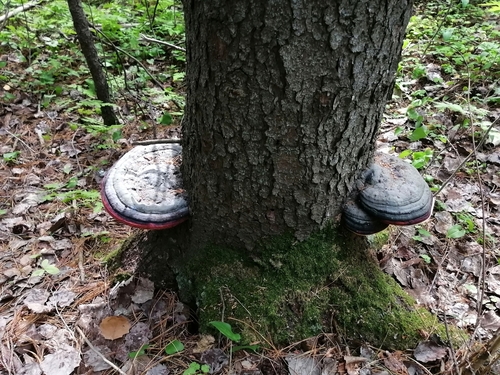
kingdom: Fungi
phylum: Basidiomycota
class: Agaricomycetes
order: Polyporales
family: Fomitopsidaceae
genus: Fomitopsis
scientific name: Fomitopsis pinicola
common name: Red-belted bracket
